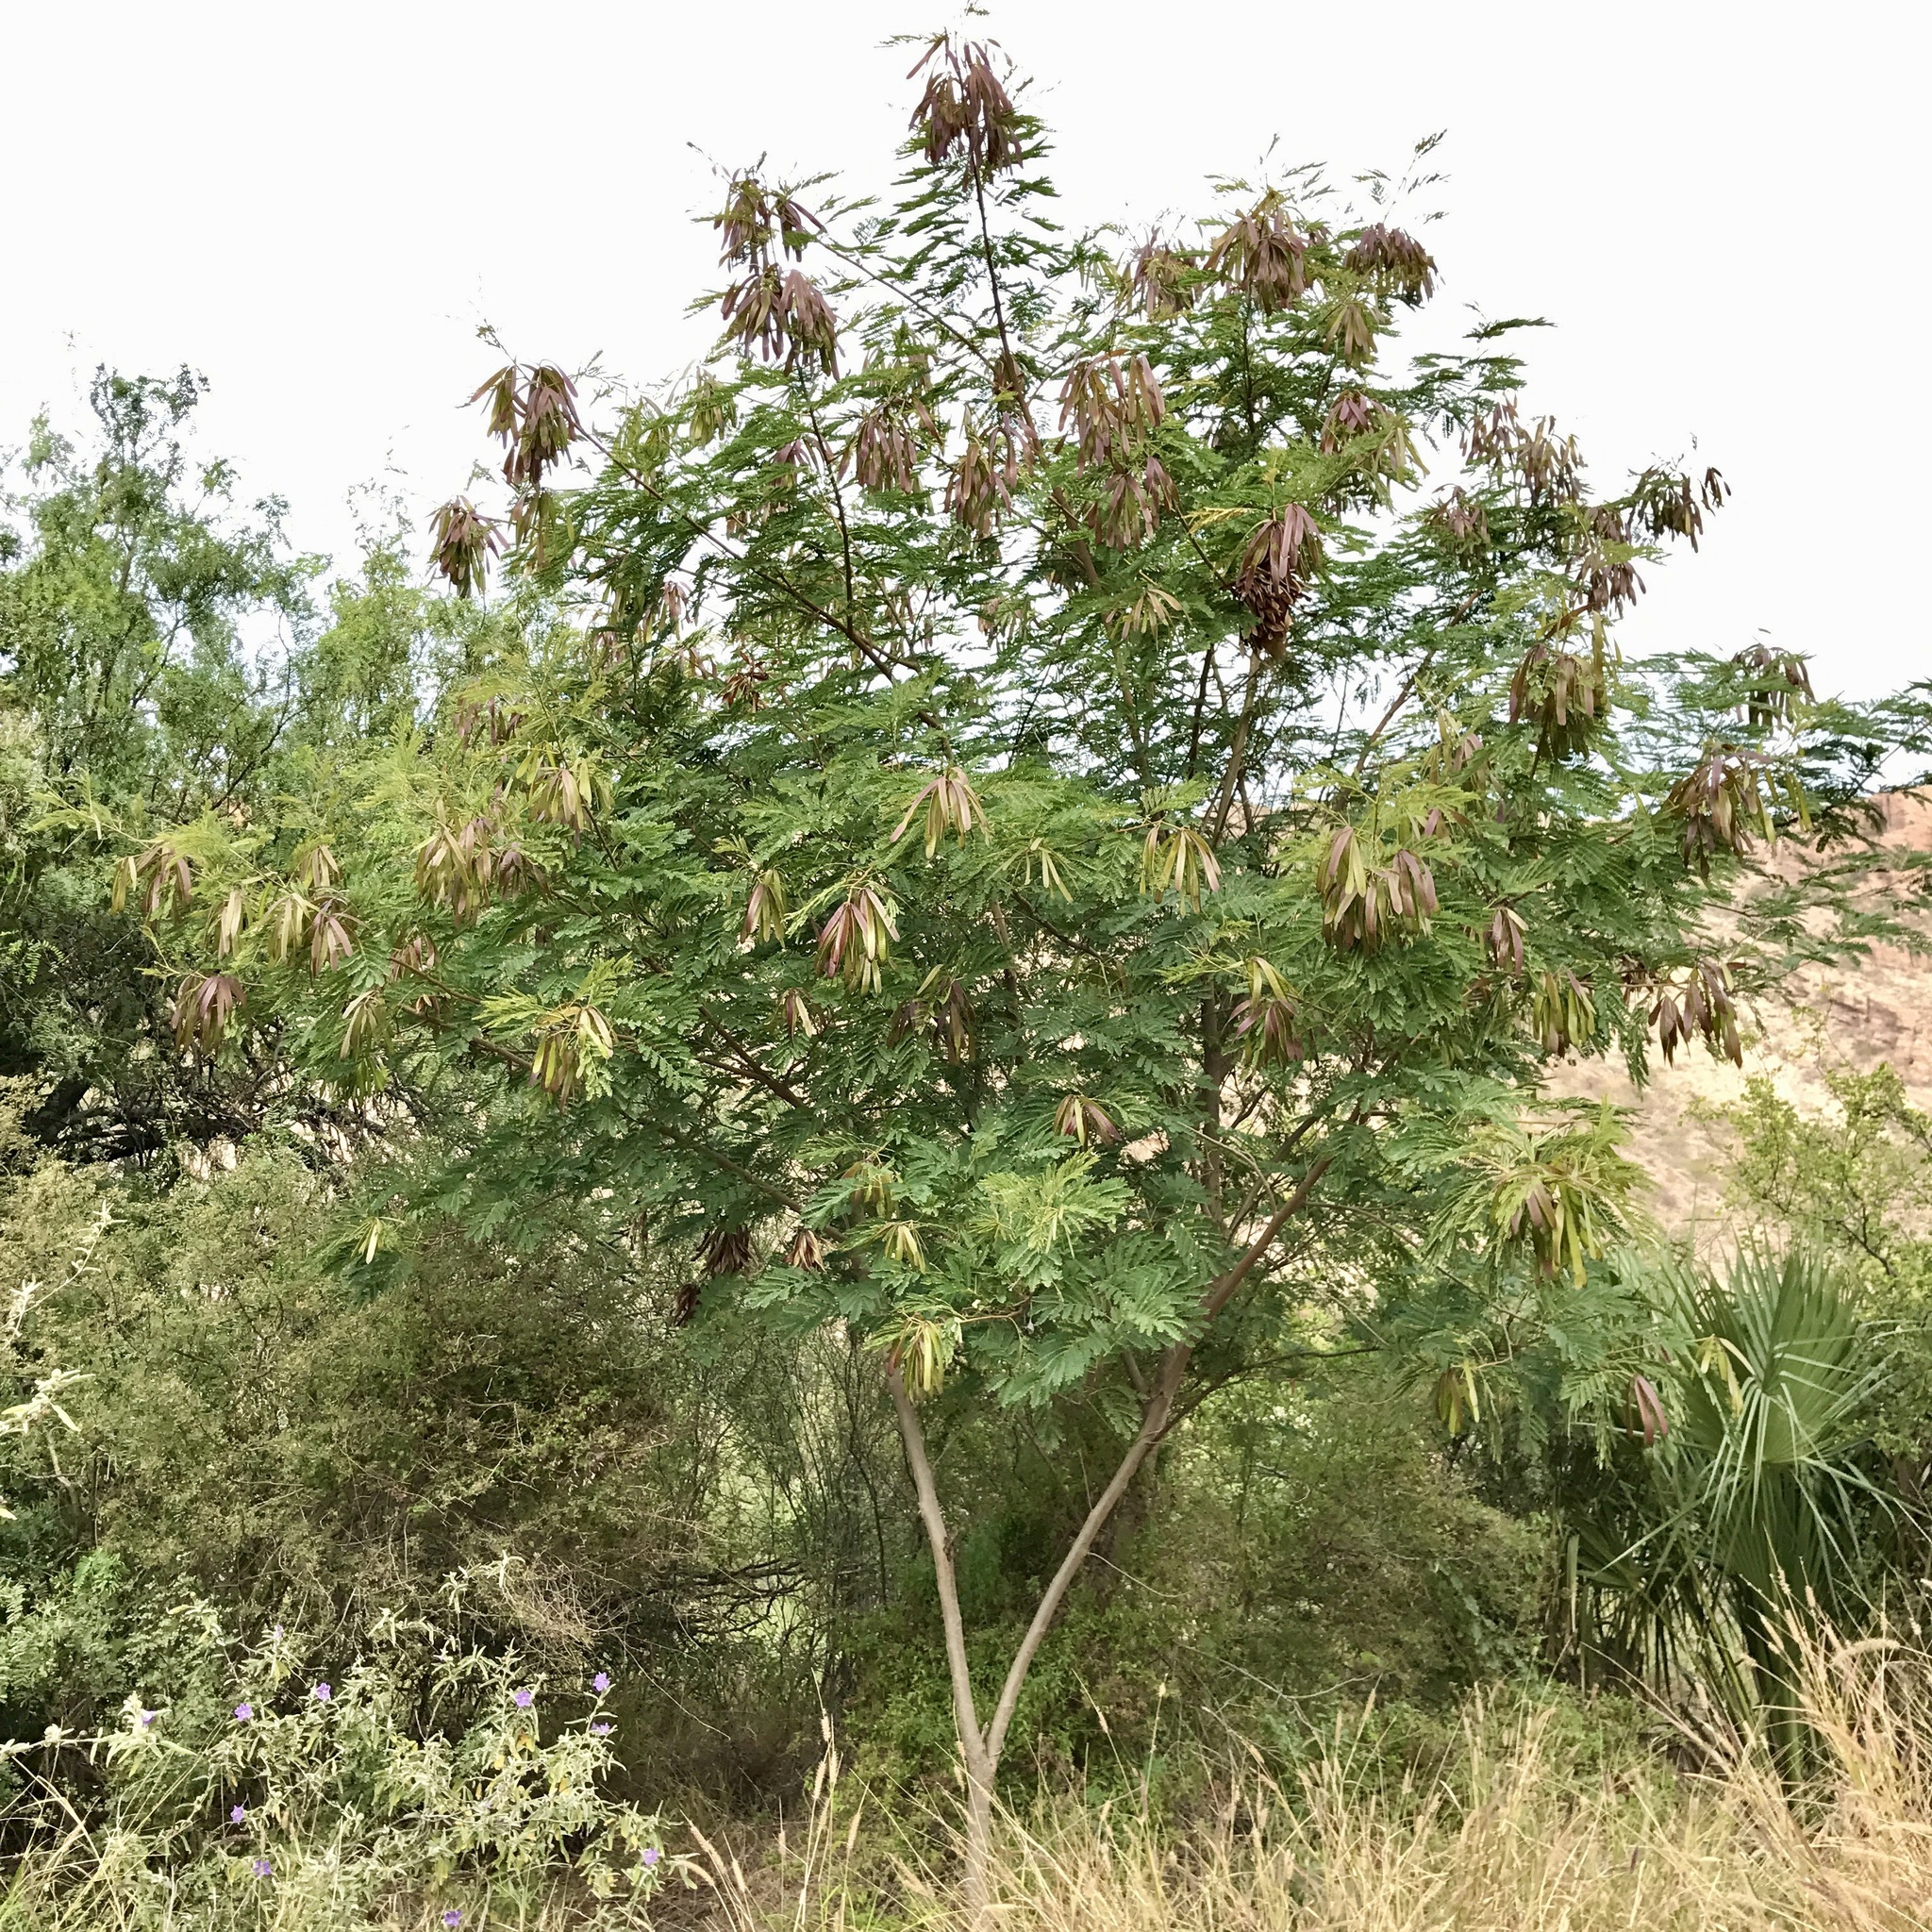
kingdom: Plantae
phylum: Tracheophyta
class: Magnoliopsida
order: Fabales
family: Fabaceae
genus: Leucaena
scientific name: Leucaena leucocephala
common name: White leadtree
